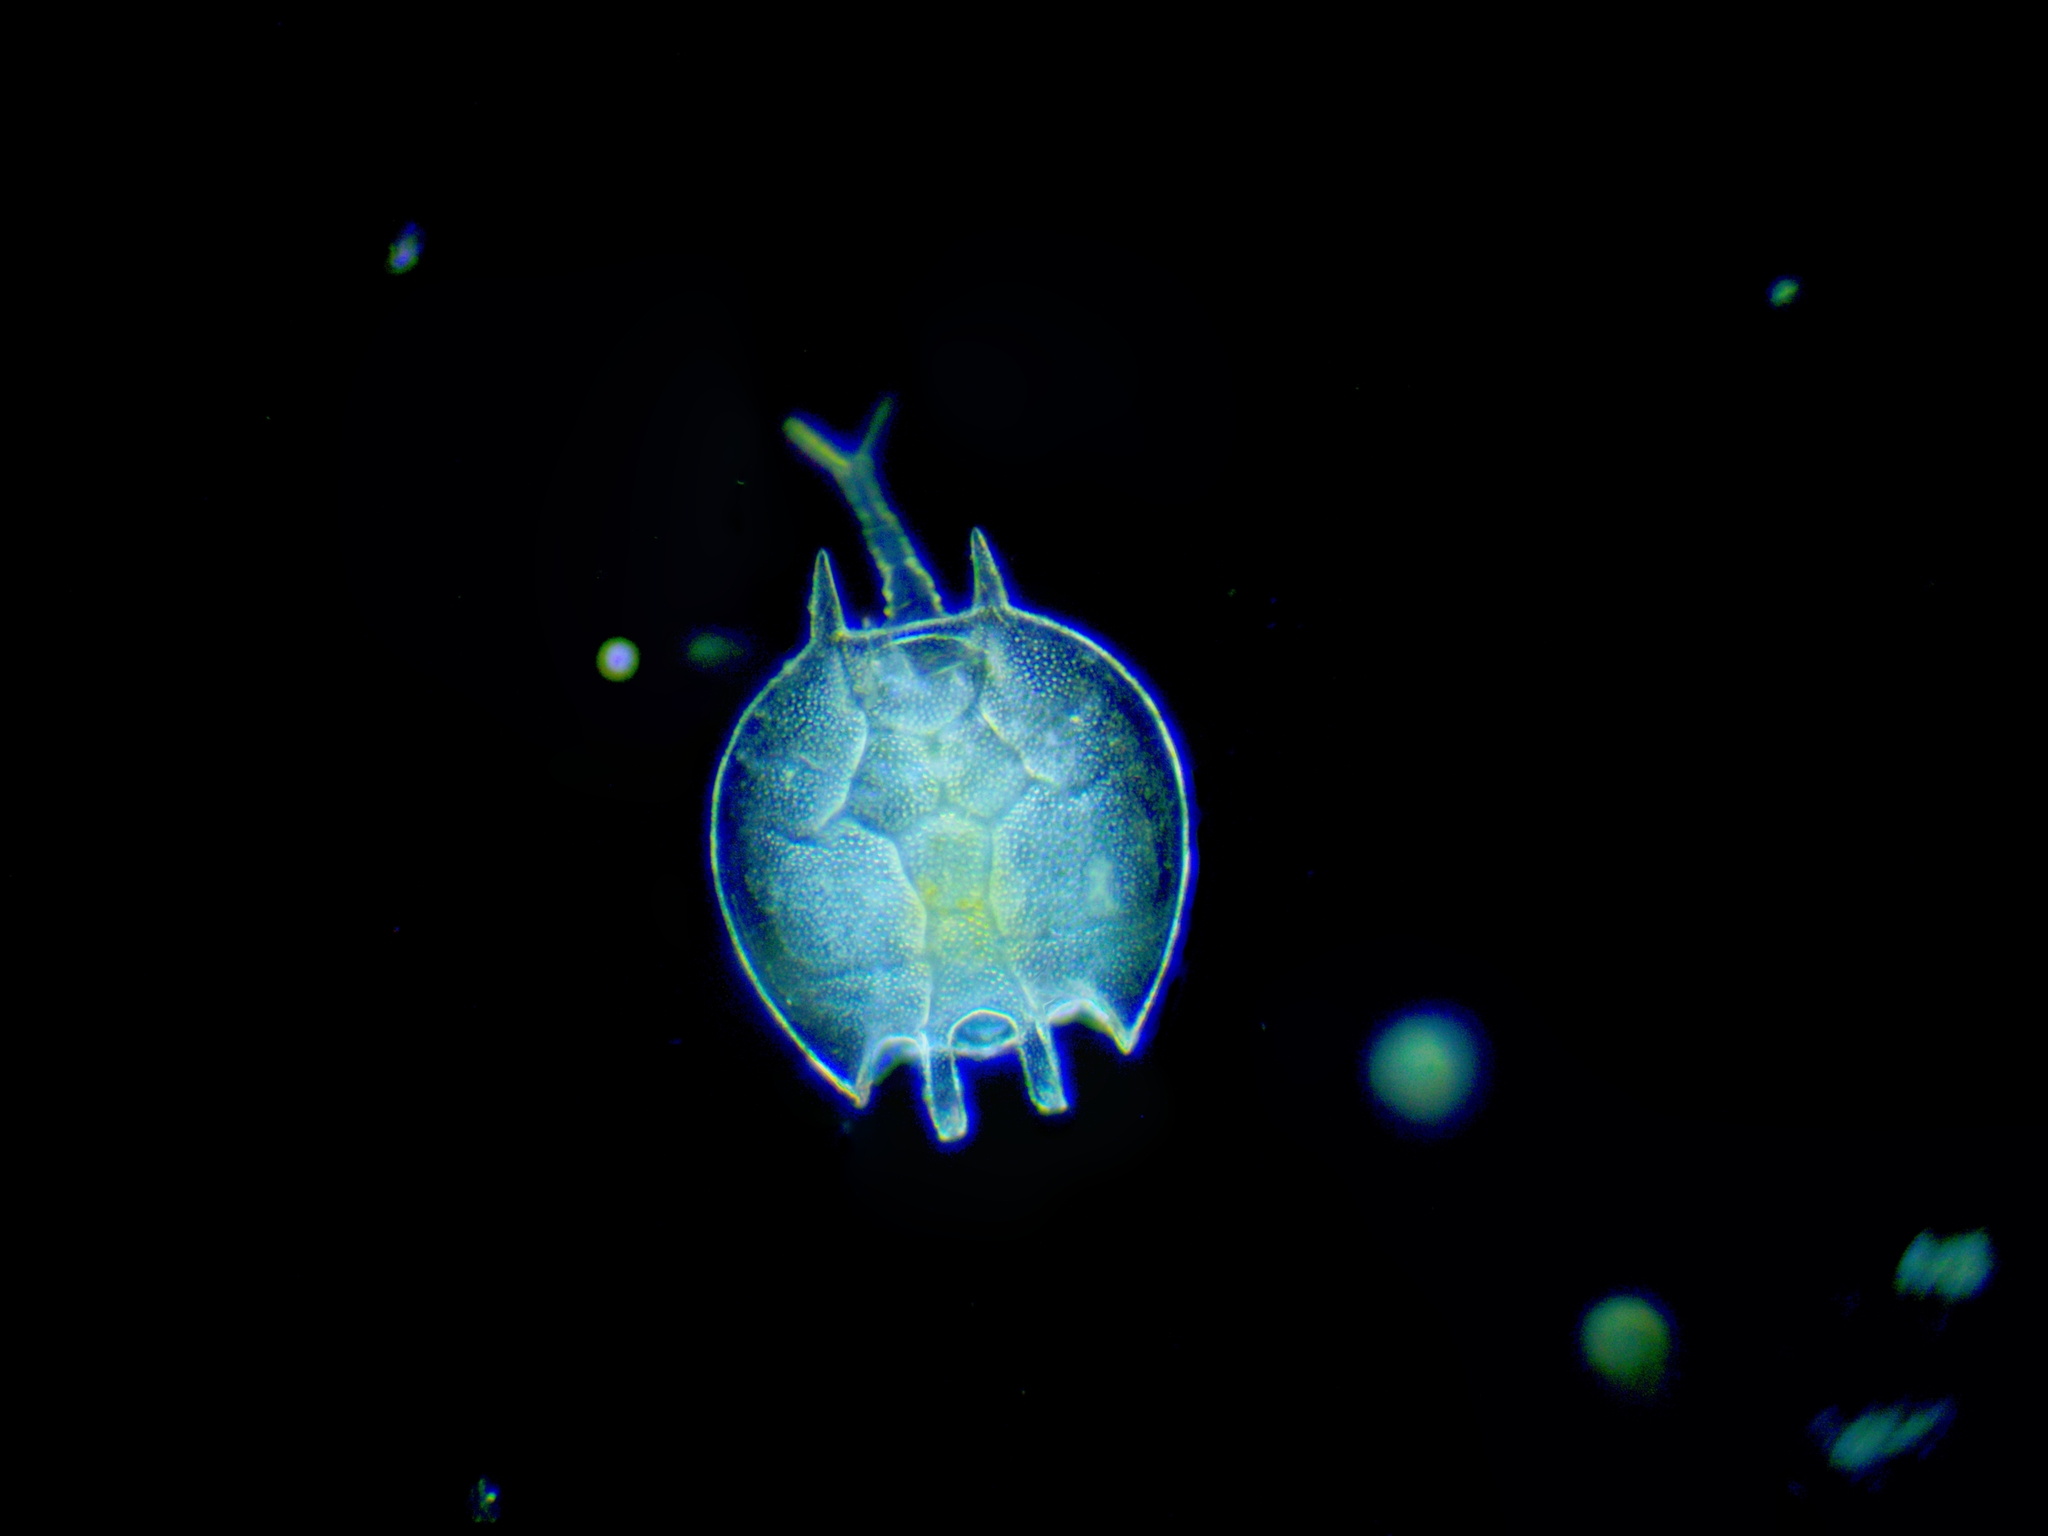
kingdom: Animalia
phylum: Rotifera
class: Eurotatoria
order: Ploima
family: Brachionidae
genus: Platyias
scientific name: Platyias quadricornis
